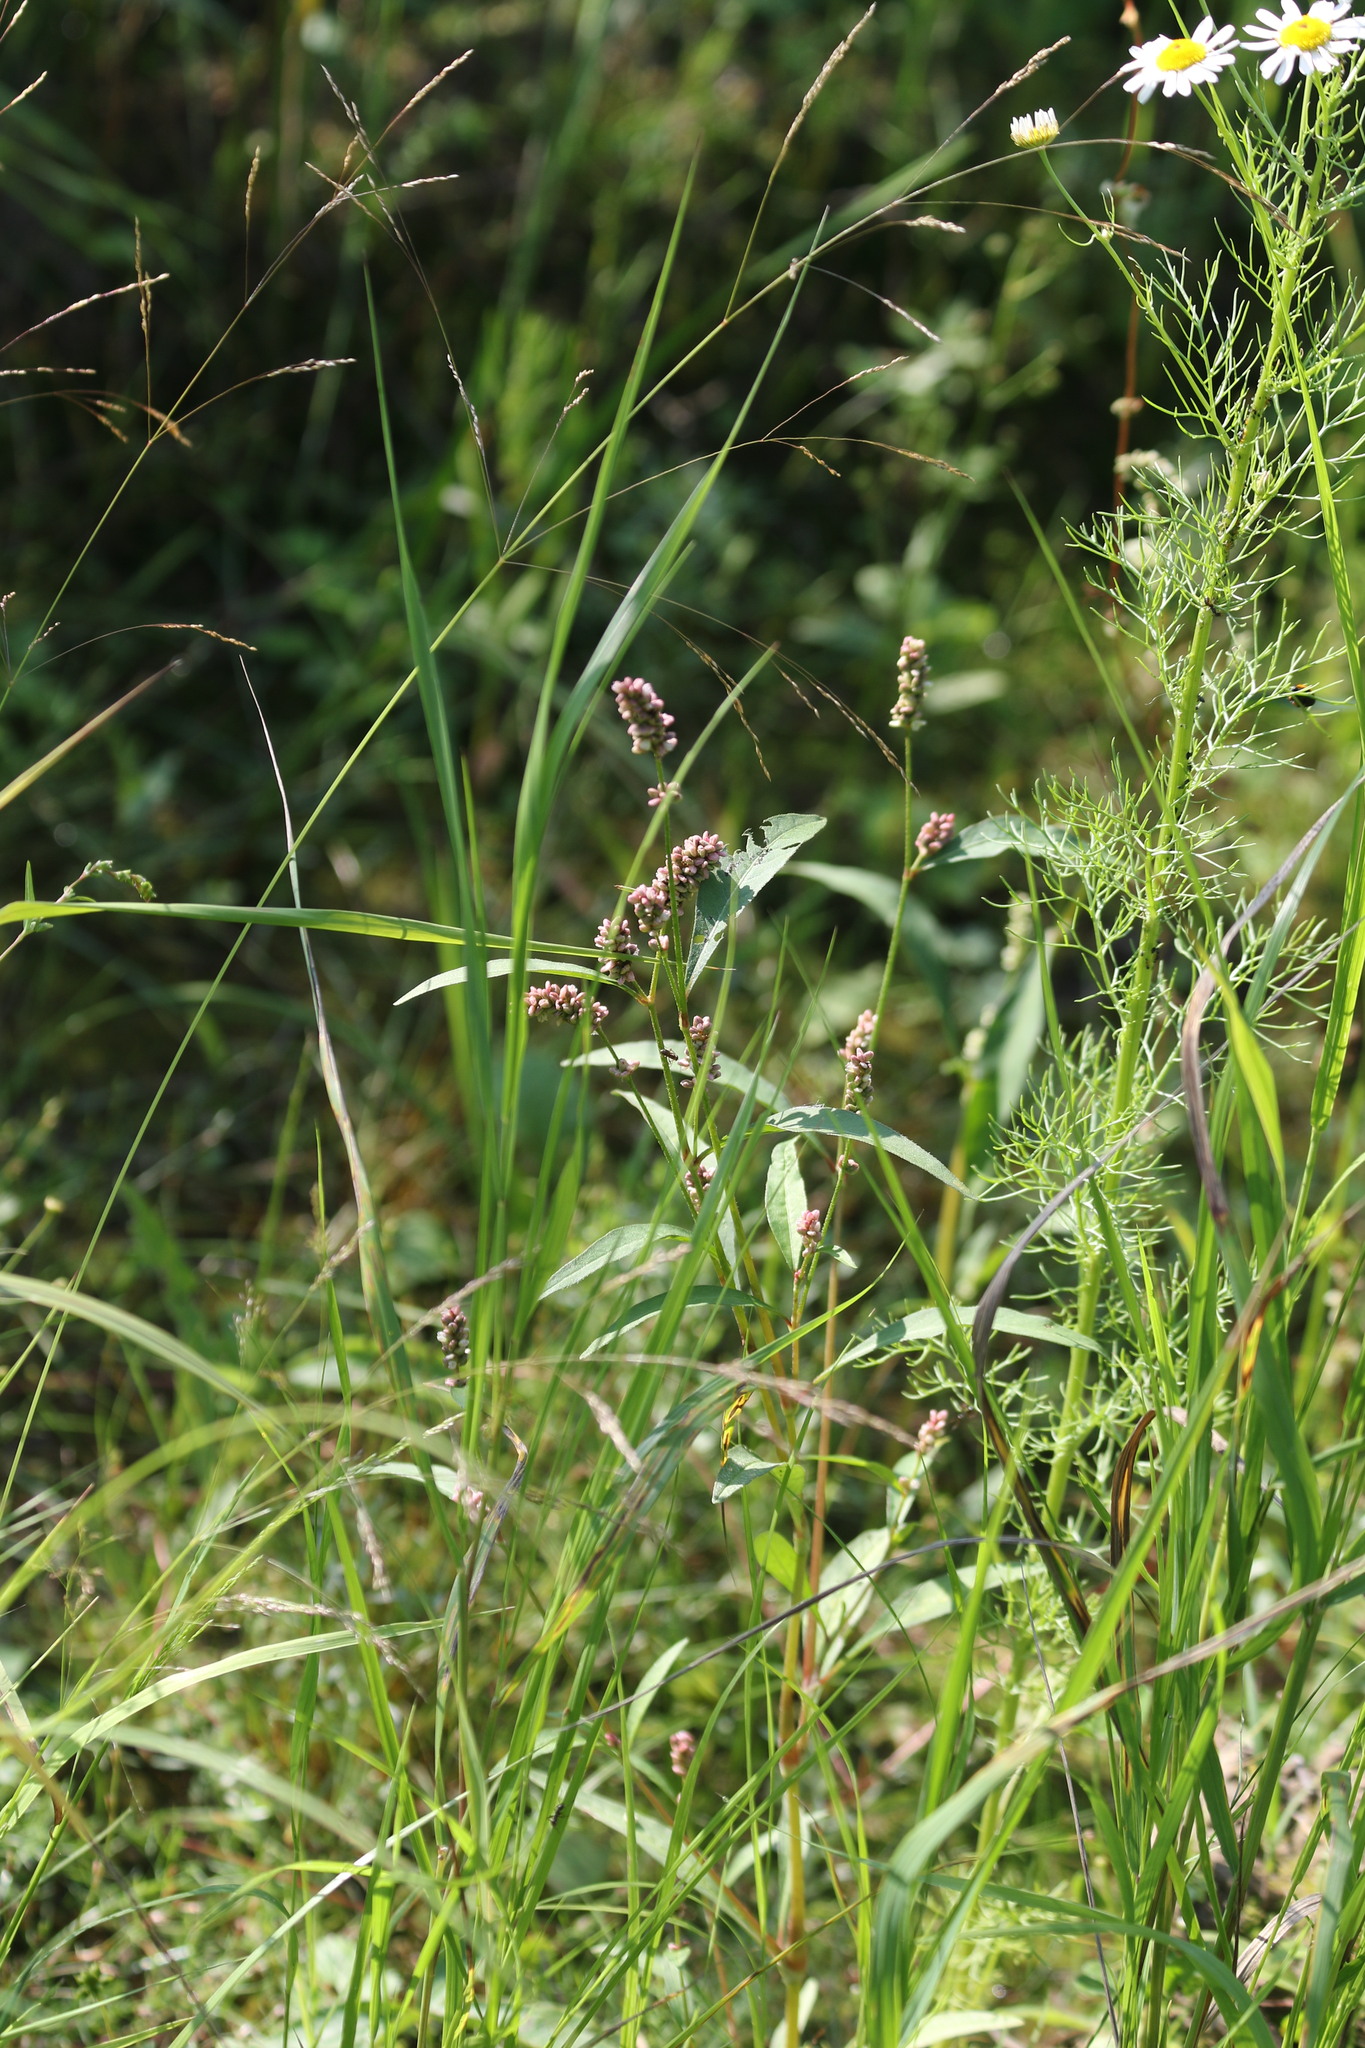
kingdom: Plantae
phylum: Tracheophyta
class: Magnoliopsida
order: Caryophyllales
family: Polygonaceae
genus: Persicaria
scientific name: Persicaria lapathifolia
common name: Curlytop knotweed
